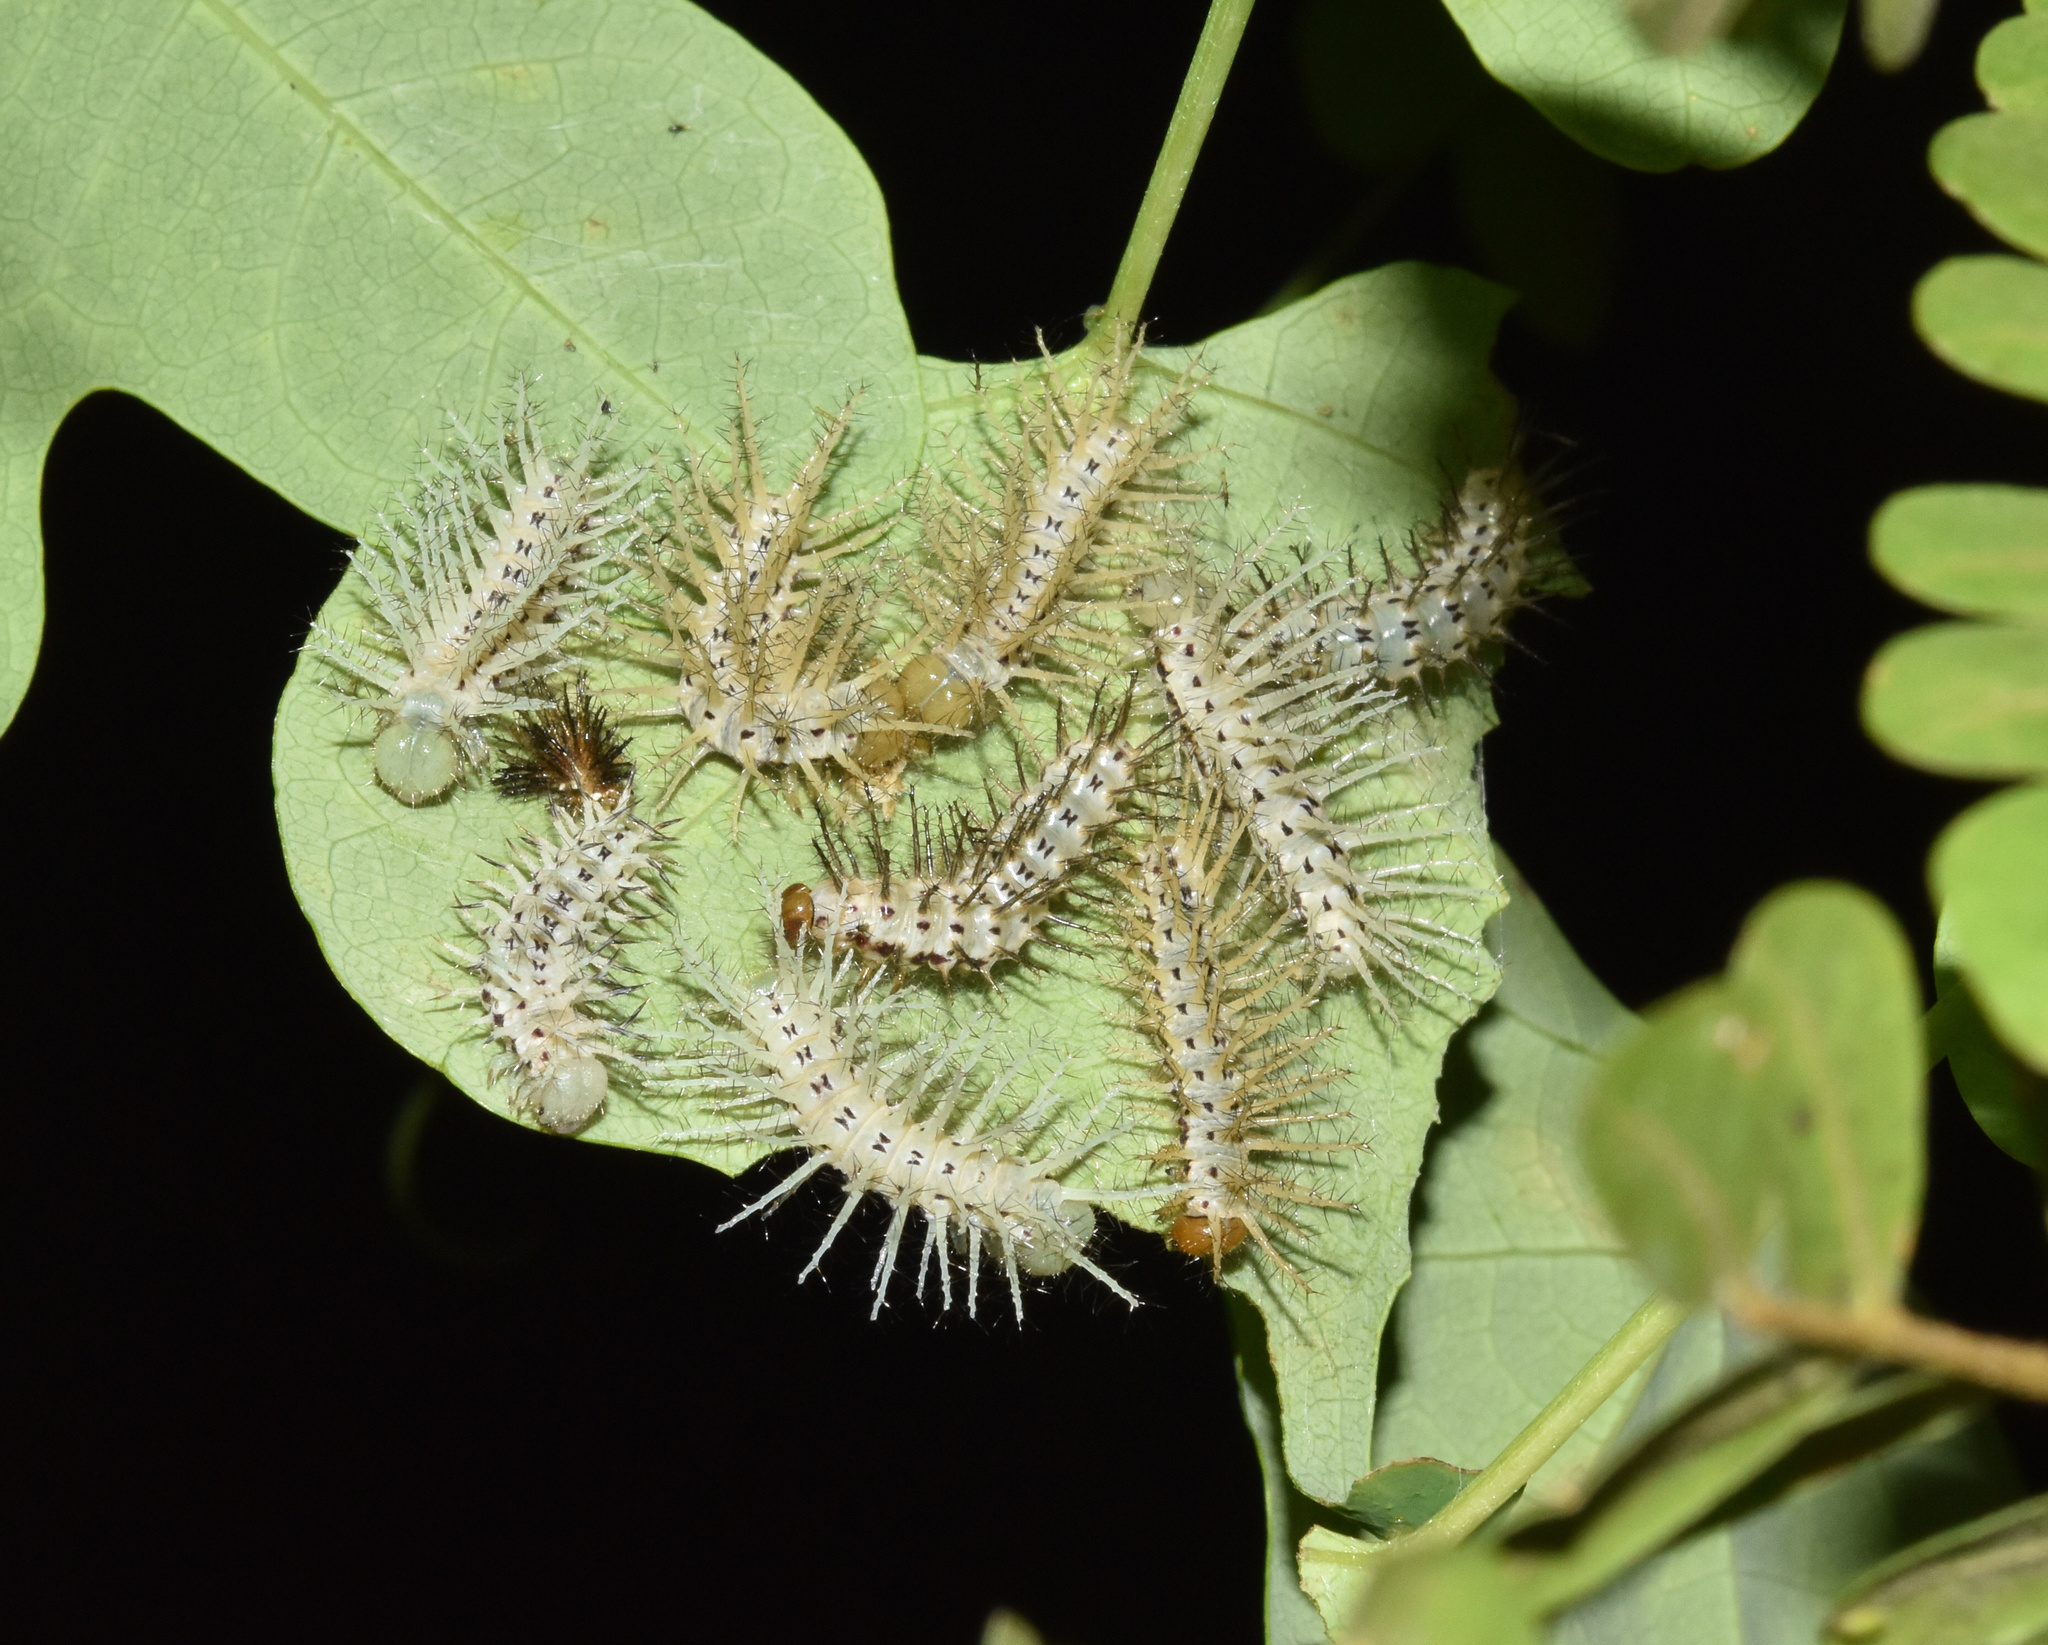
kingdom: Animalia
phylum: Arthropoda
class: Insecta
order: Lepidoptera
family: Nymphalidae
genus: Acraea
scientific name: Acraea Bematistes aganice
